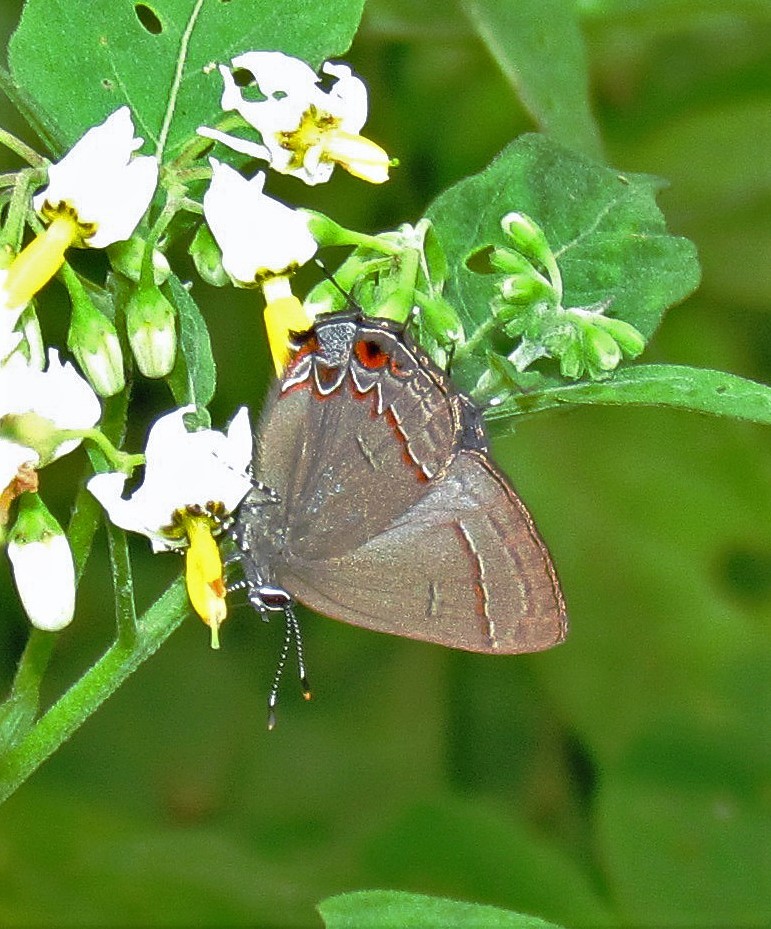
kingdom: Animalia
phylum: Arthropoda
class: Insecta
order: Lepidoptera
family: Lycaenidae
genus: Calycopis
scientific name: Calycopis caulonia
